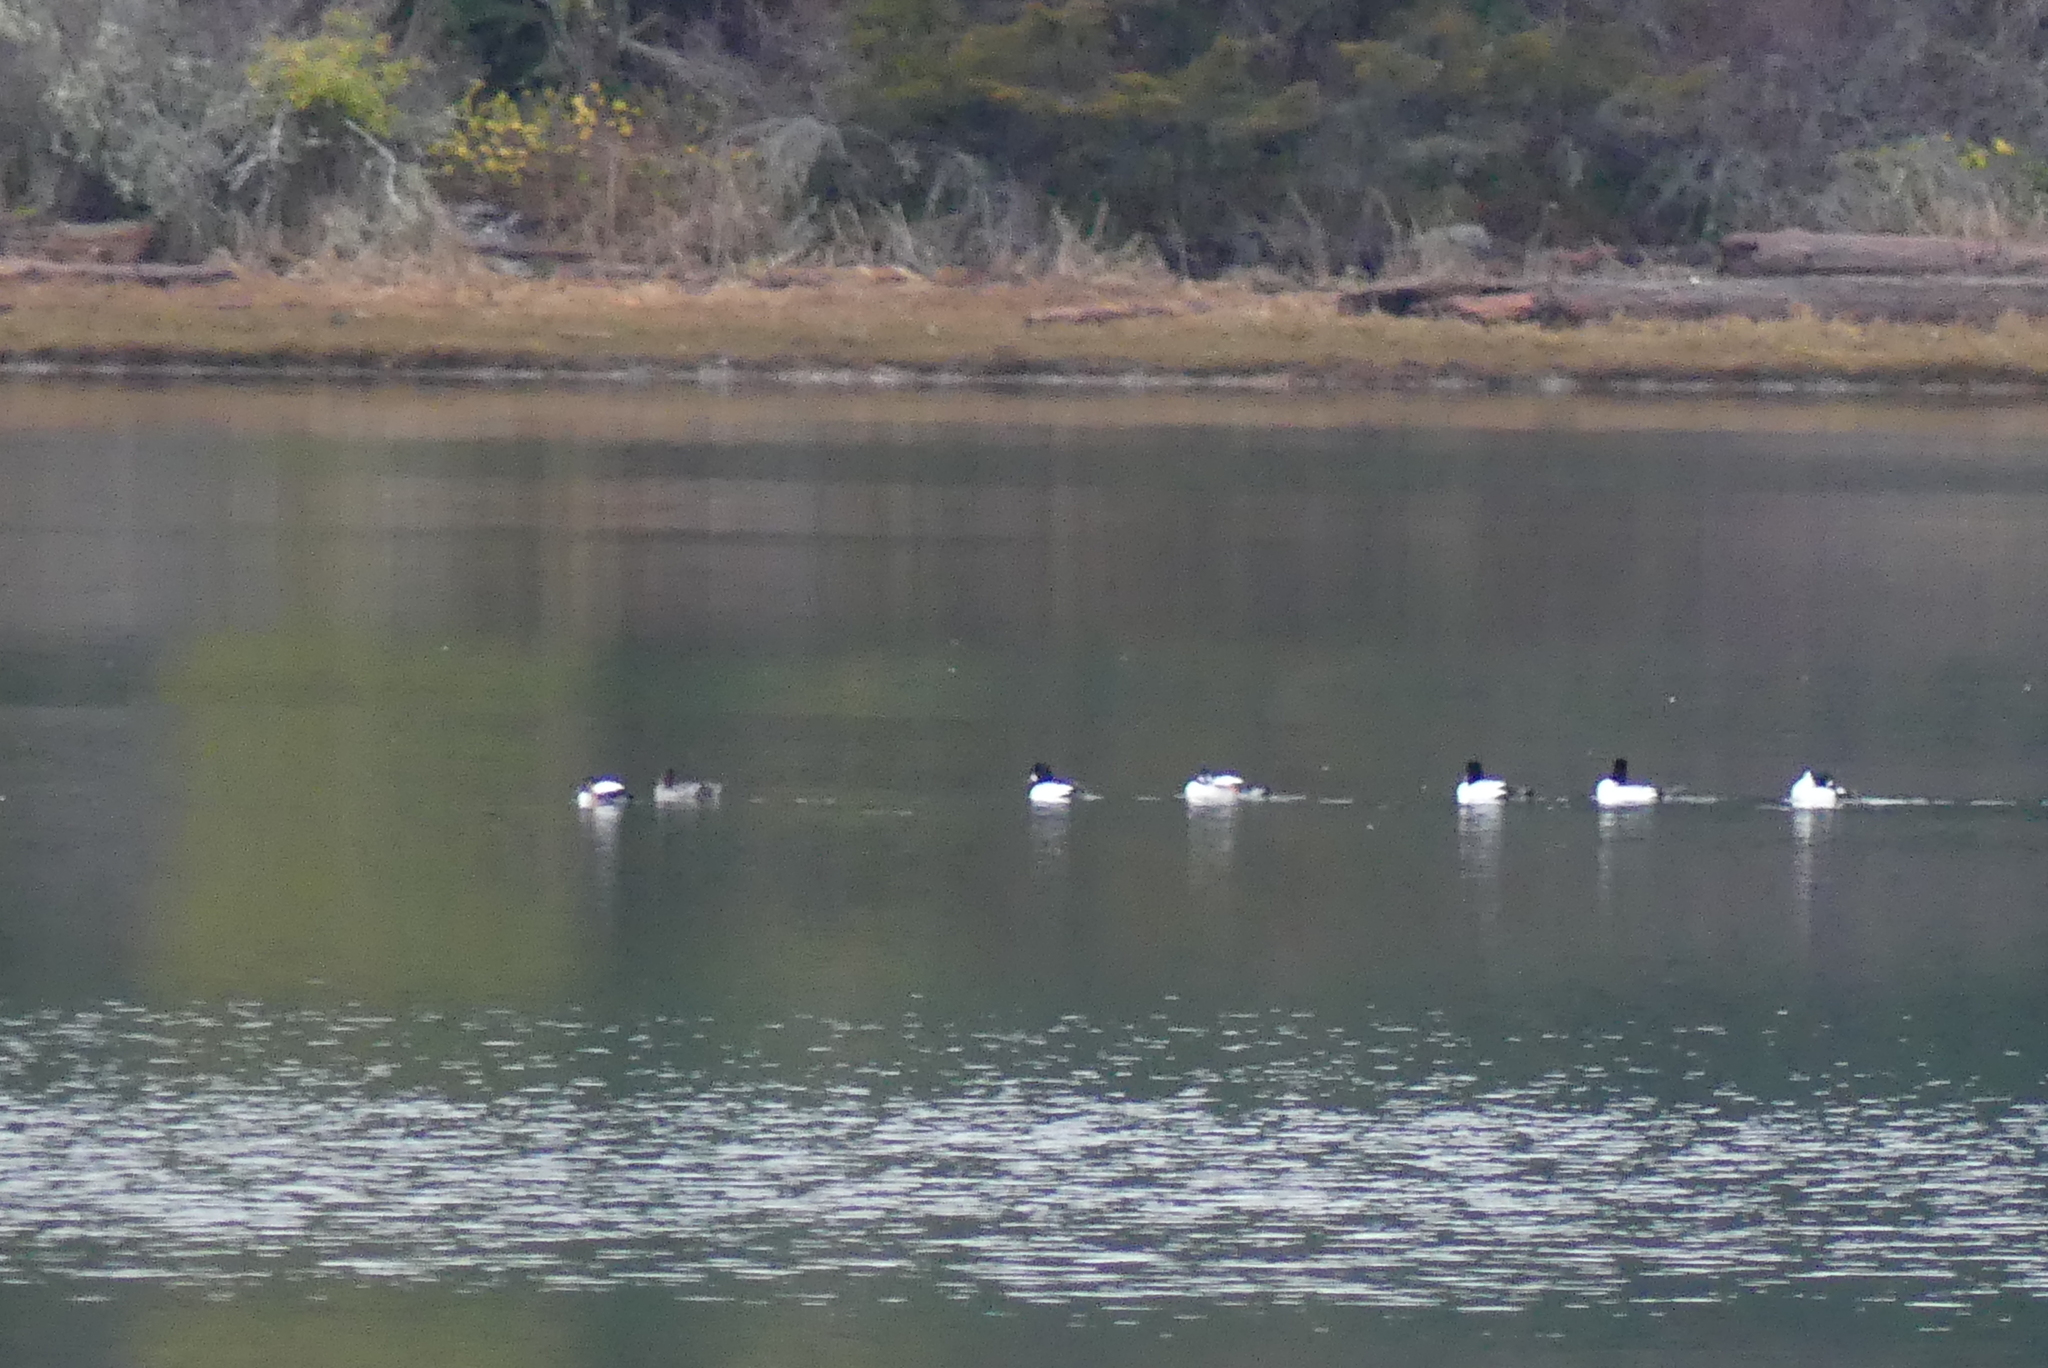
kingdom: Animalia
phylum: Chordata
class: Aves
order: Anseriformes
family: Anatidae
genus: Bucephala
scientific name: Bucephala clangula
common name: Common goldeneye
